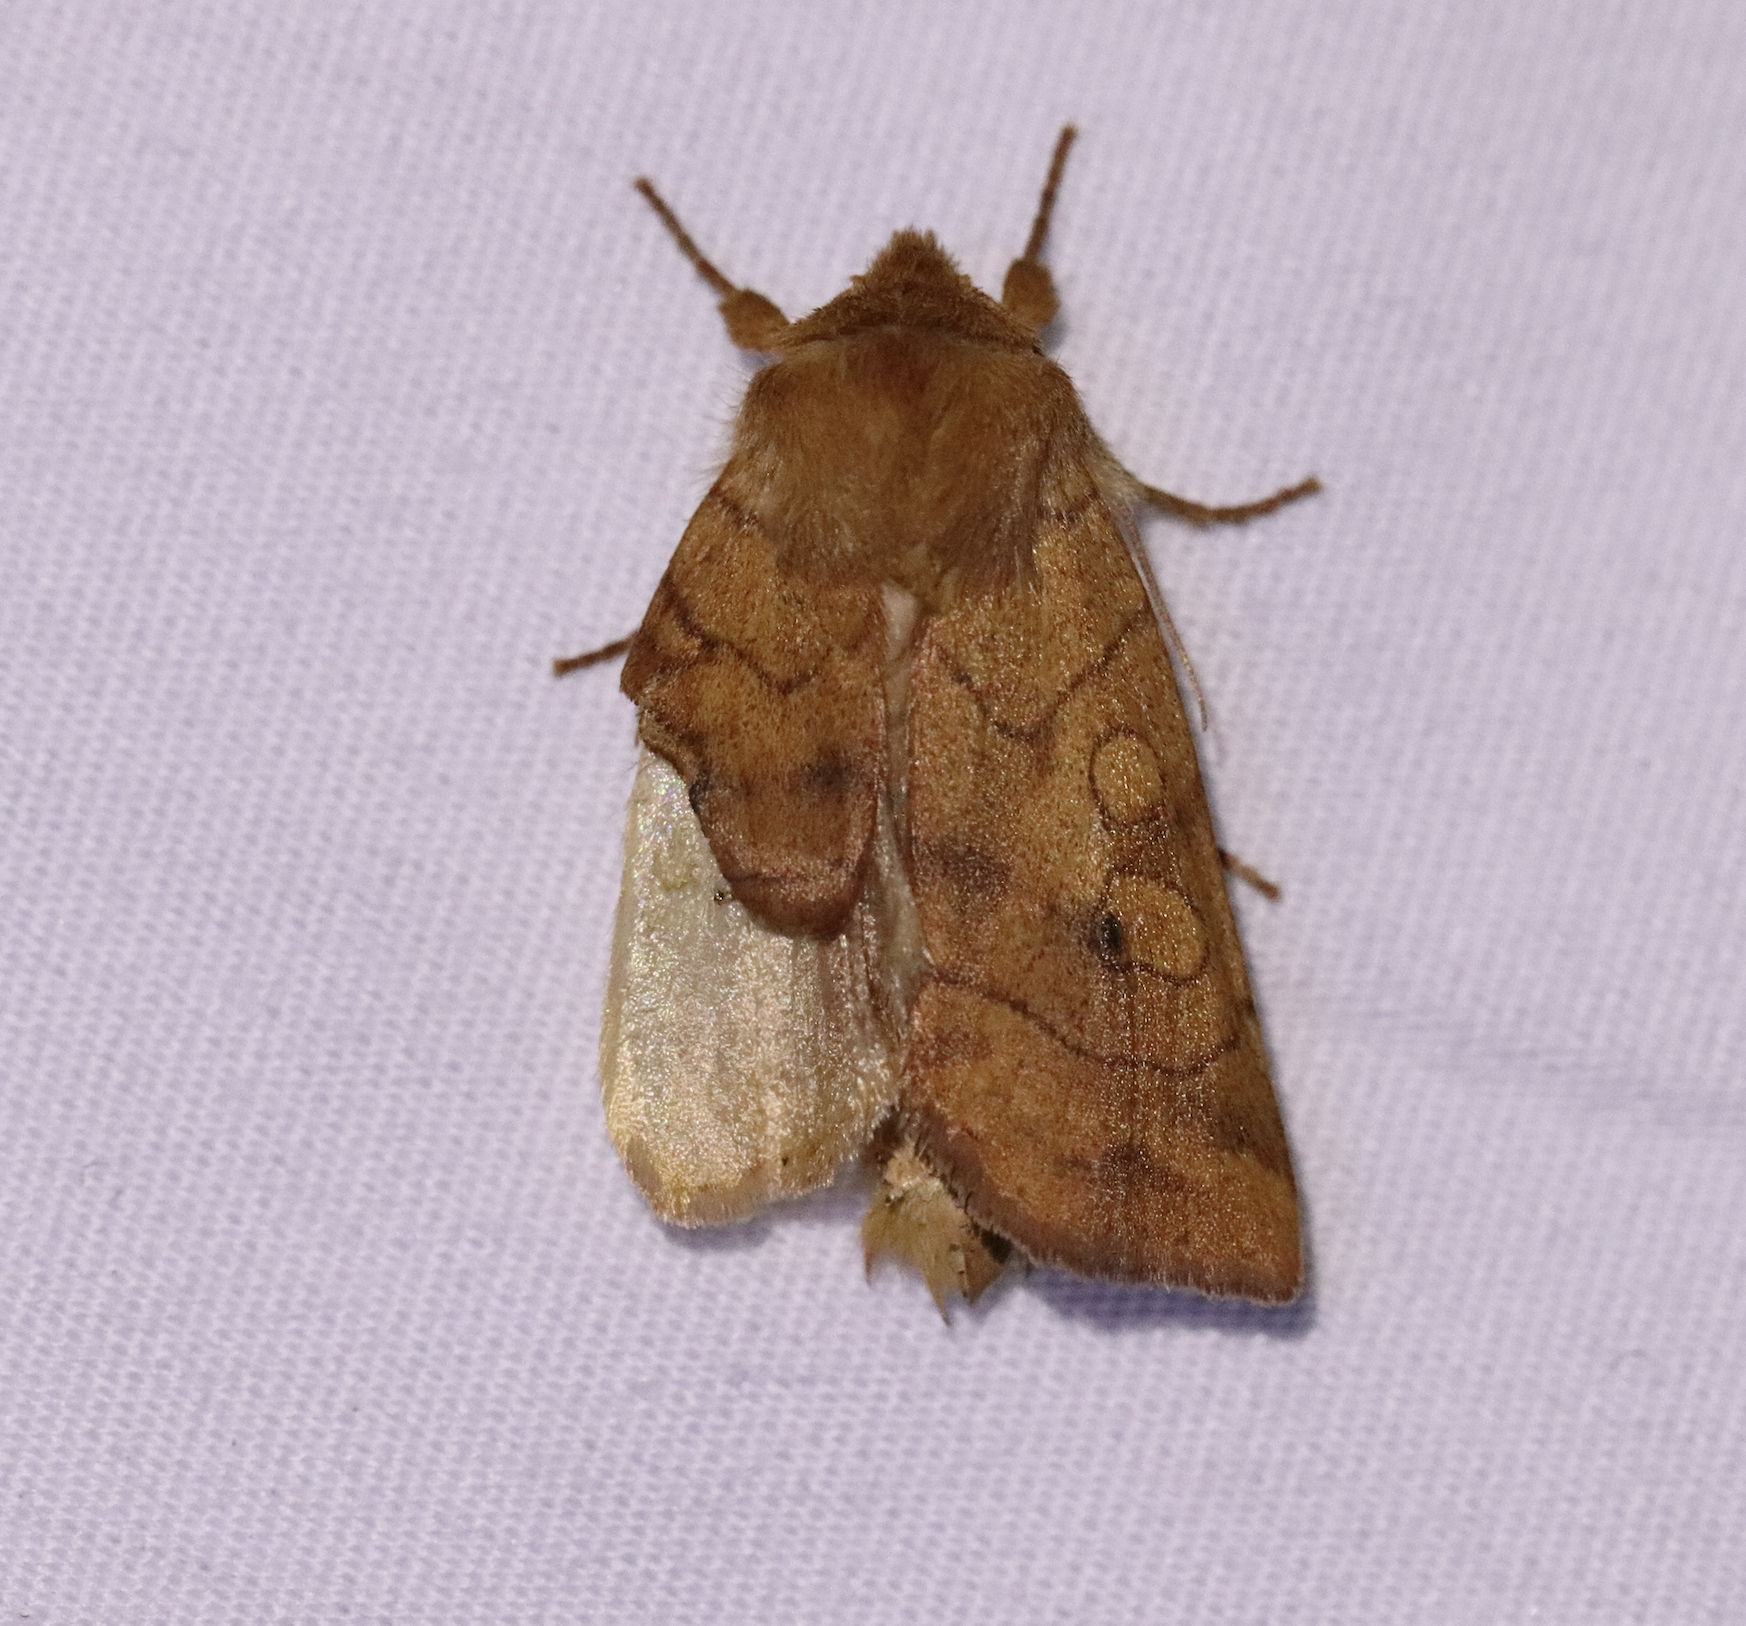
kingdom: Animalia
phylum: Arthropoda
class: Insecta
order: Lepidoptera
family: Noctuidae
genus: Enargia
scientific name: Enargia infumata
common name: Smoked sallow
